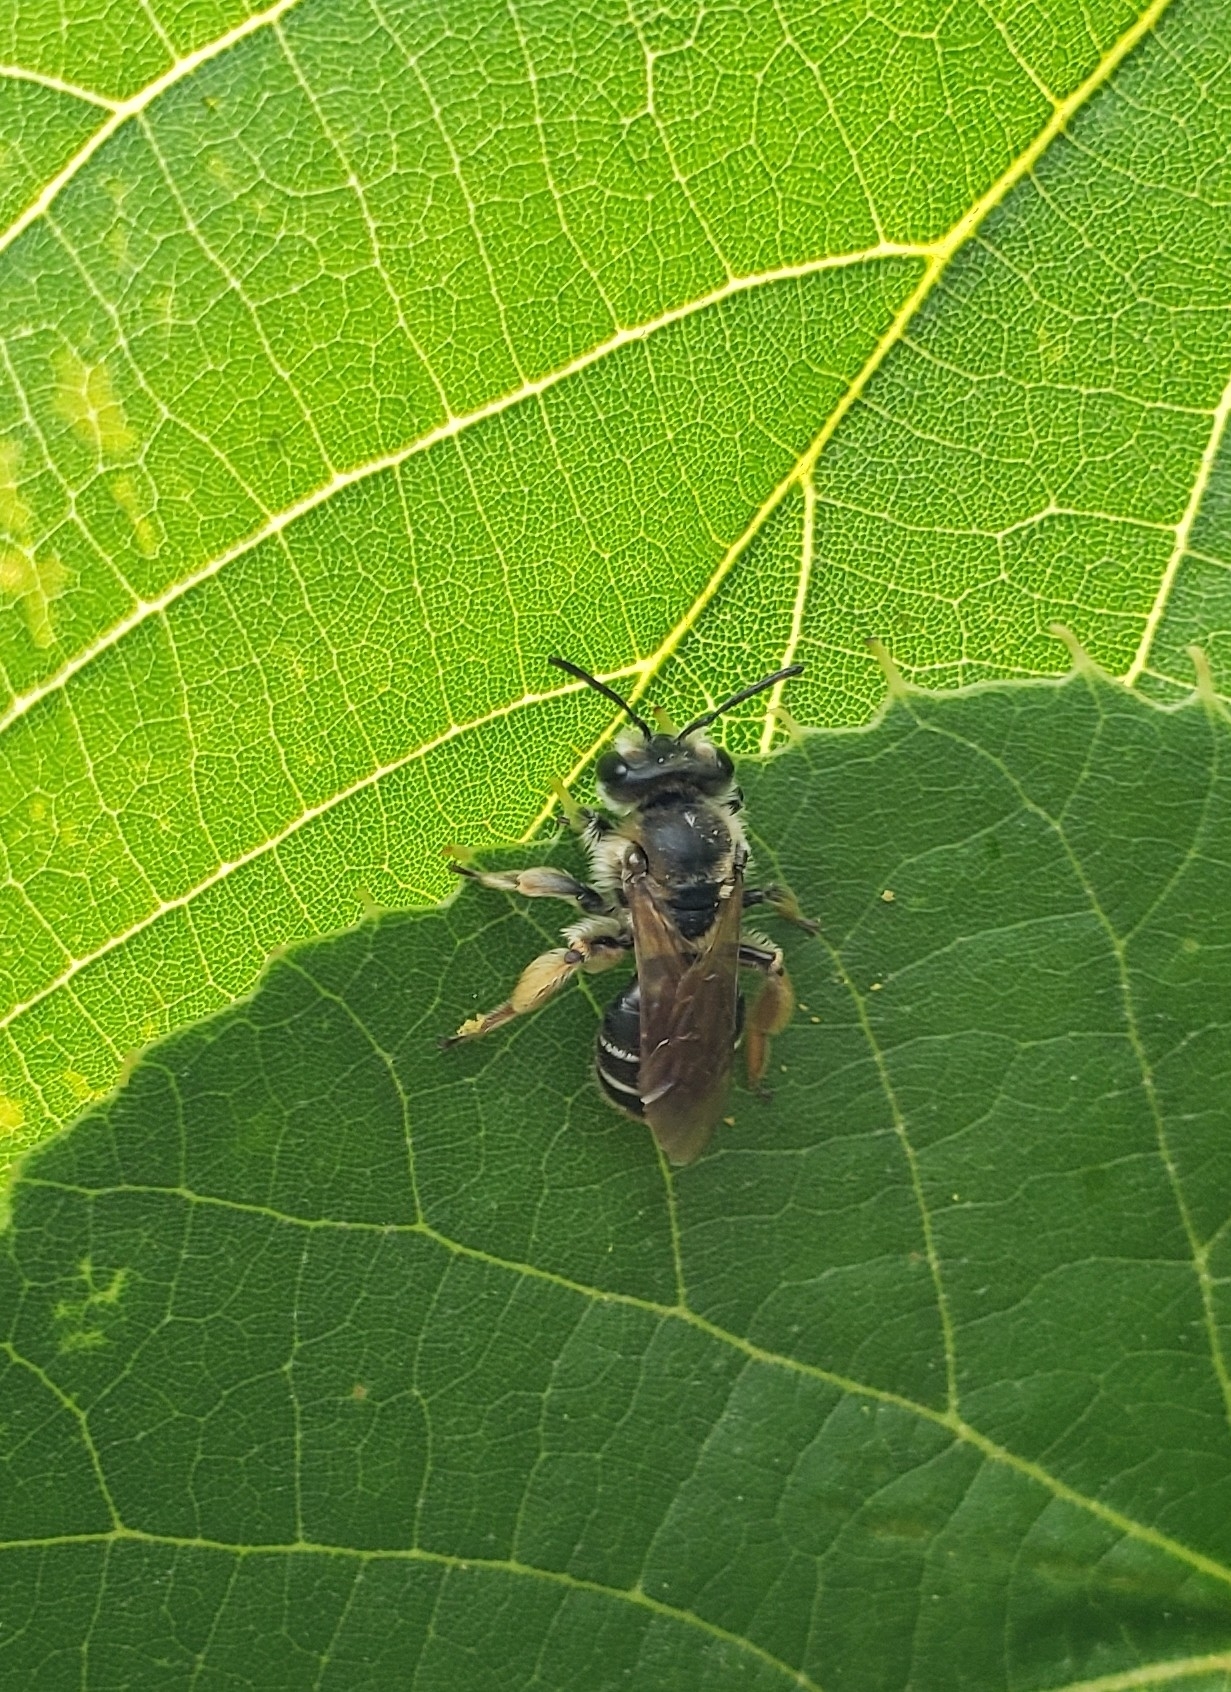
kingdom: Animalia
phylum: Arthropoda
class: Insecta
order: Hymenoptera
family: Andrenidae
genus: Andrena
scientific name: Andrena wilkella
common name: Wilke's mining bee
